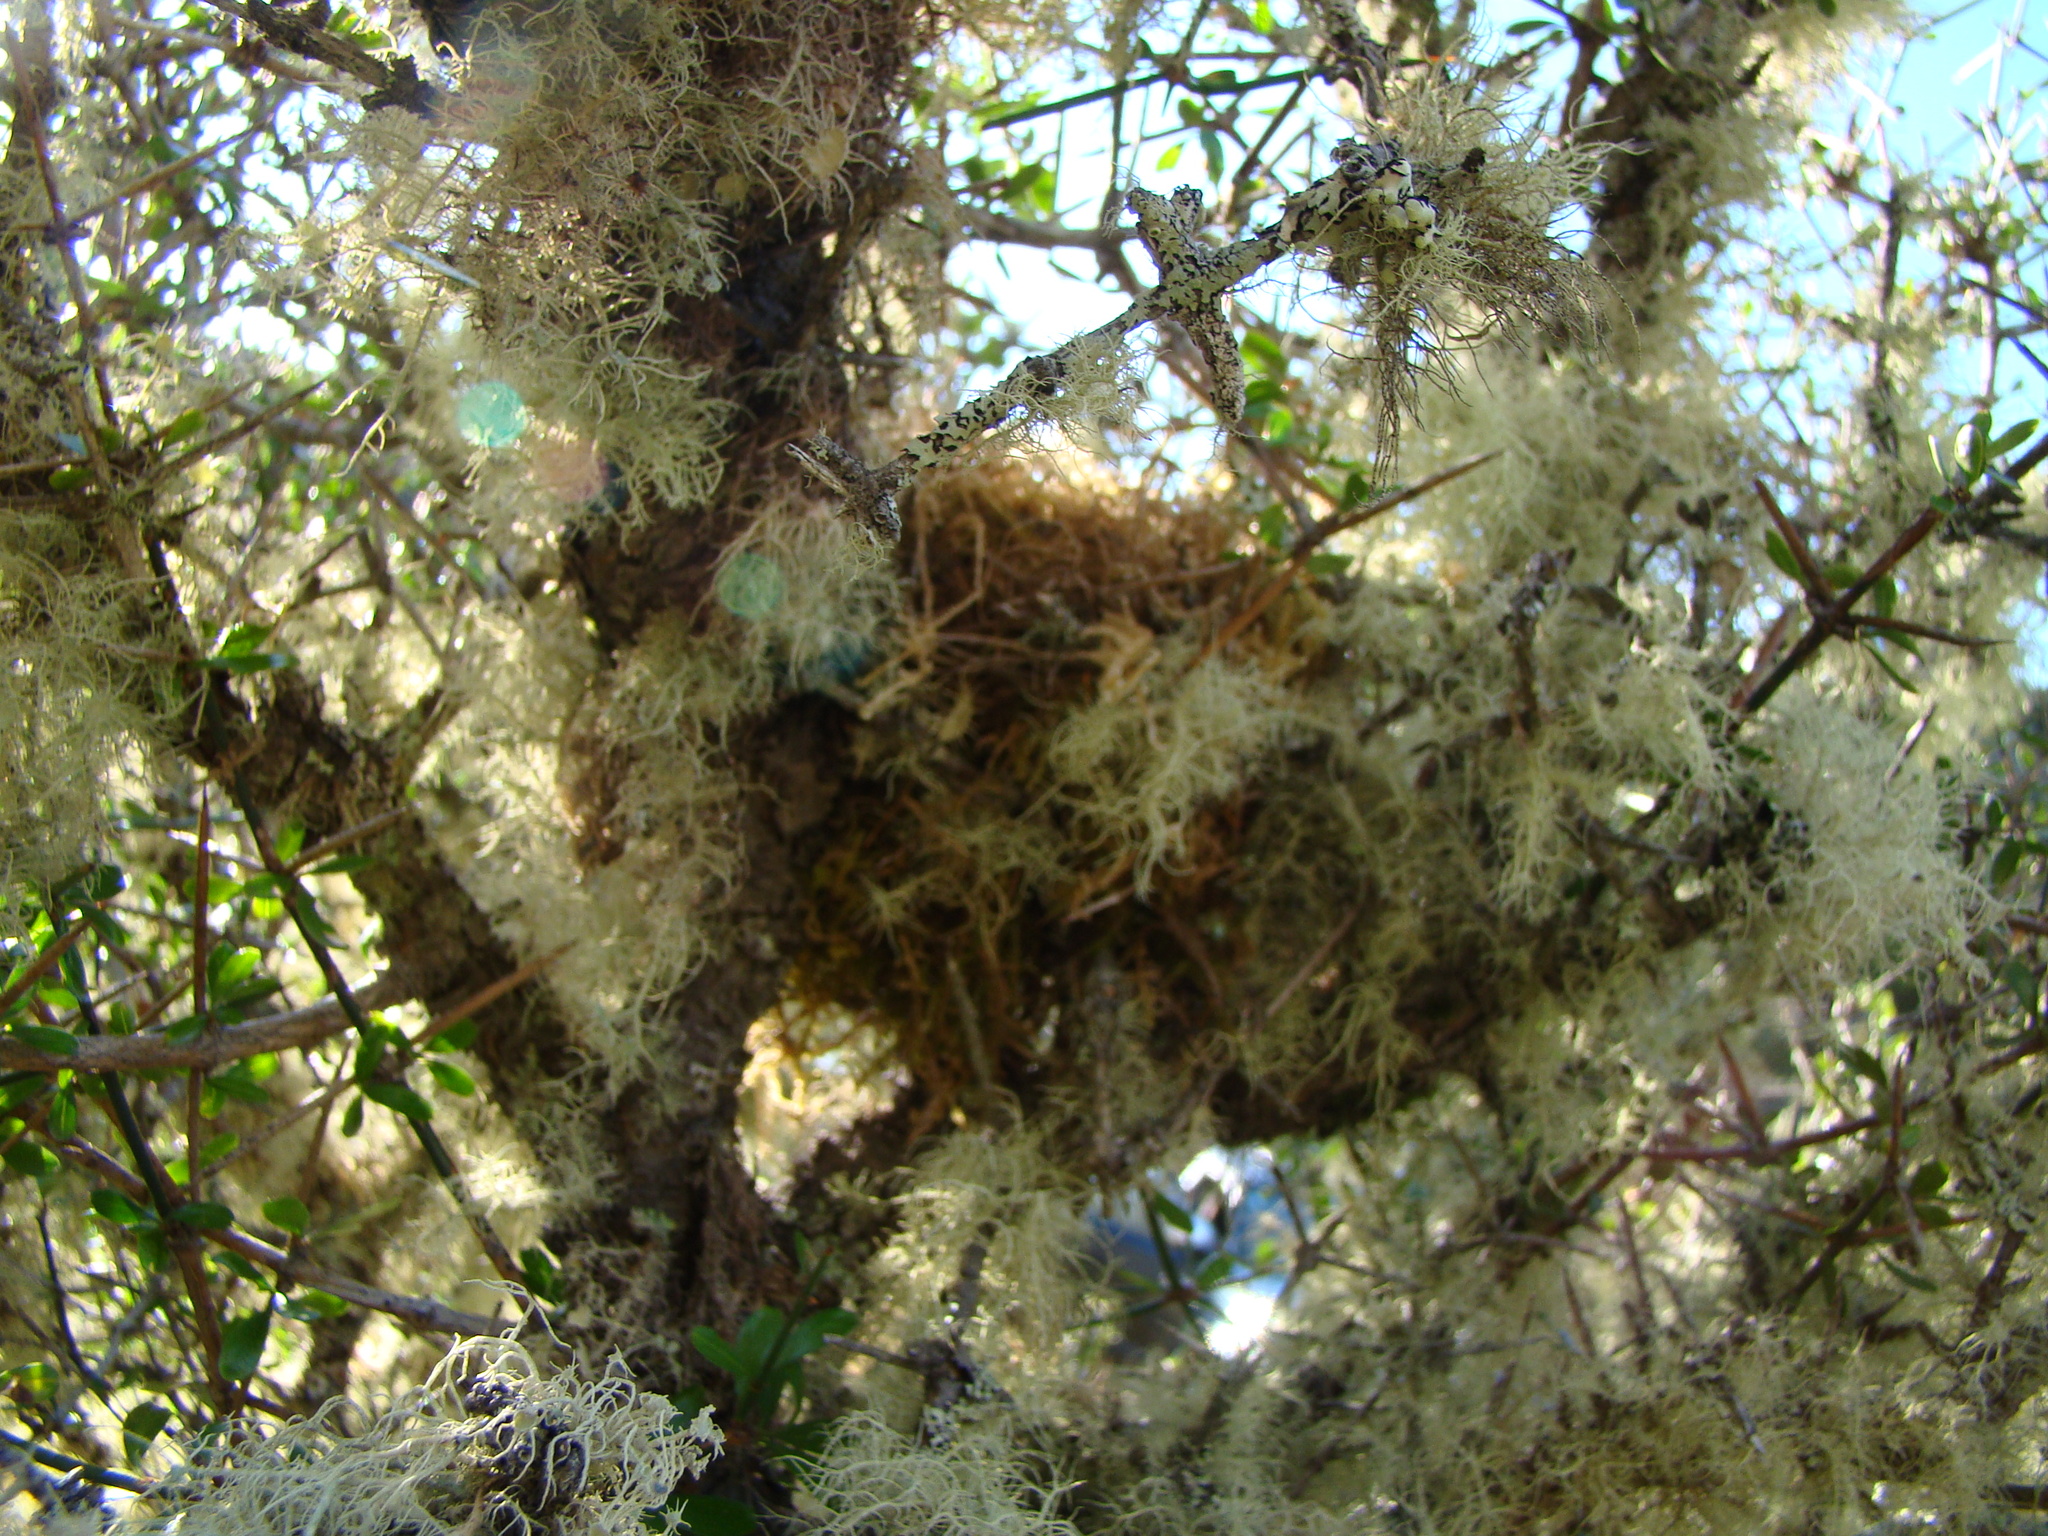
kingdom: Plantae
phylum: Tracheophyta
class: Magnoliopsida
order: Rosales
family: Rhamnaceae
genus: Discaria
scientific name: Discaria toumatou
